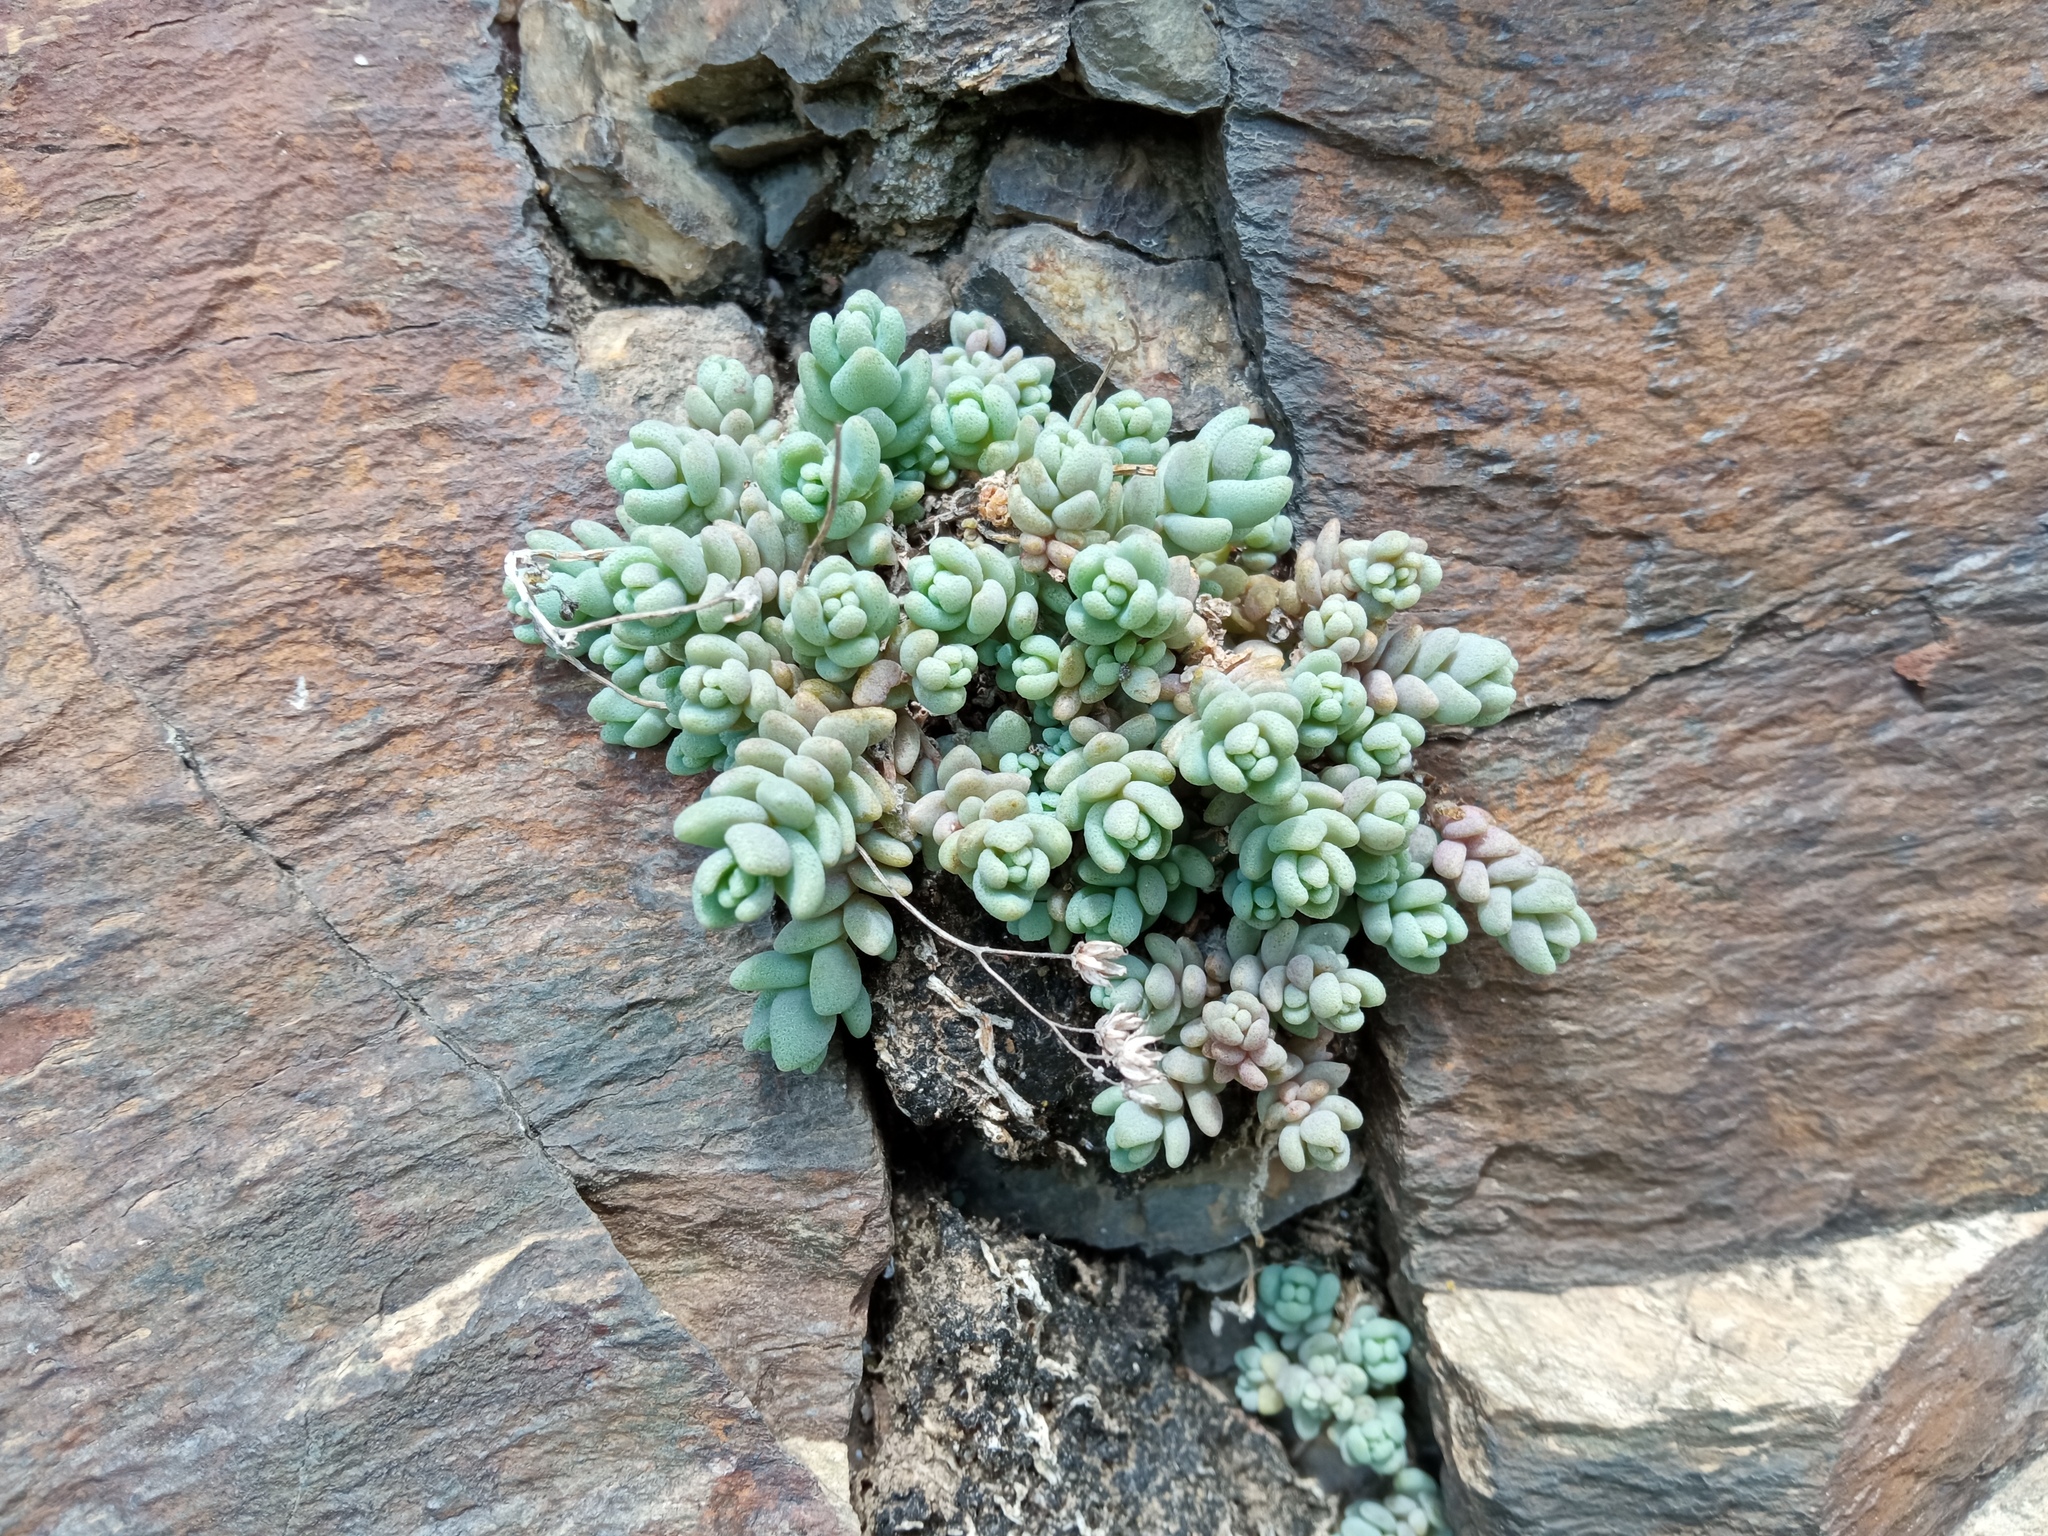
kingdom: Plantae
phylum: Tracheophyta
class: Magnoliopsida
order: Saxifragales
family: Crassulaceae
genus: Sedum
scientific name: Sedum dasyphyllum
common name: Thick-leaf stonecrop
